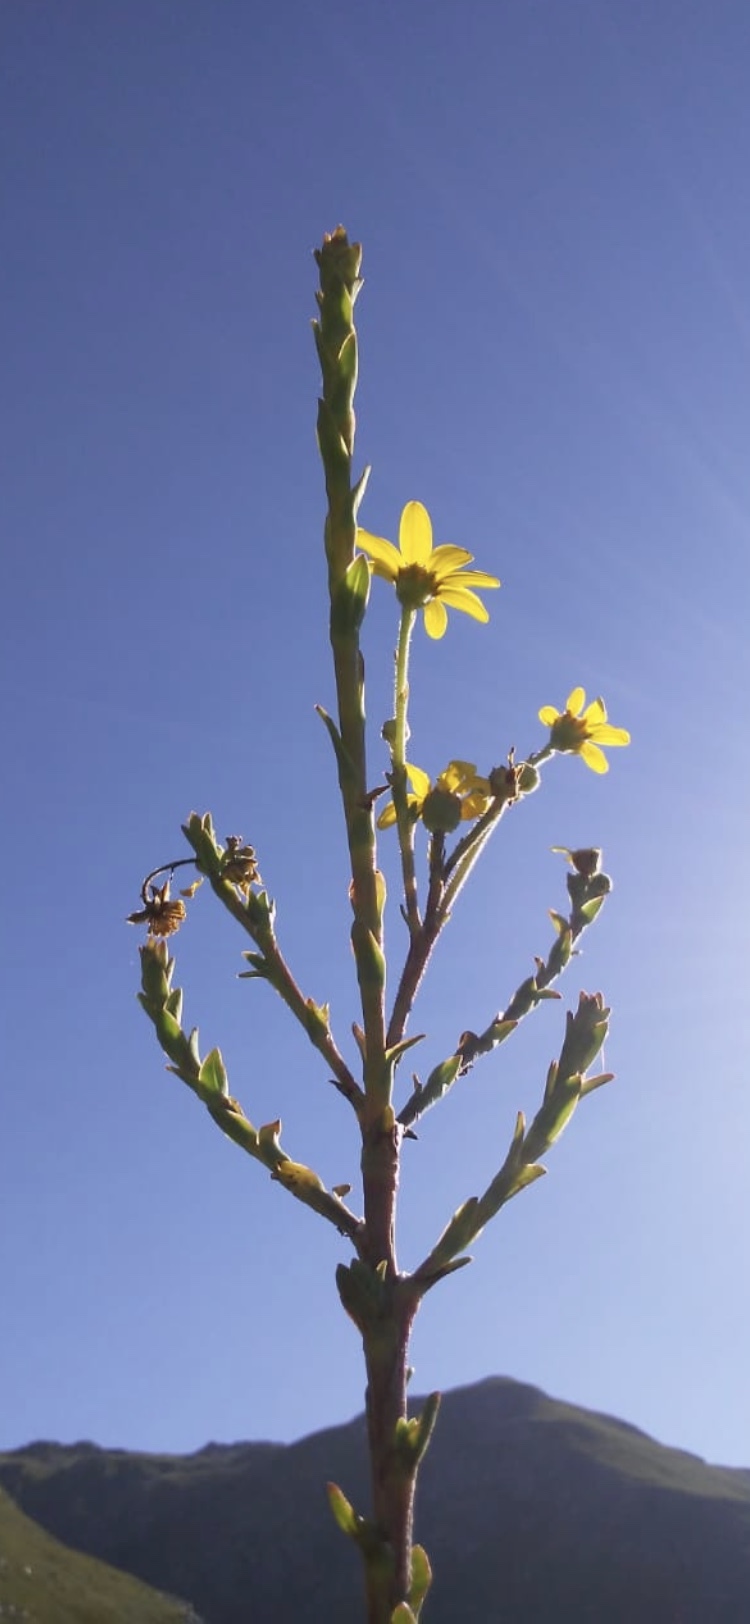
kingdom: Plantae
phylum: Tracheophyta
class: Magnoliopsida
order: Asterales
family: Asteraceae
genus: Osteospermum
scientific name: Osteospermum corymbosum
